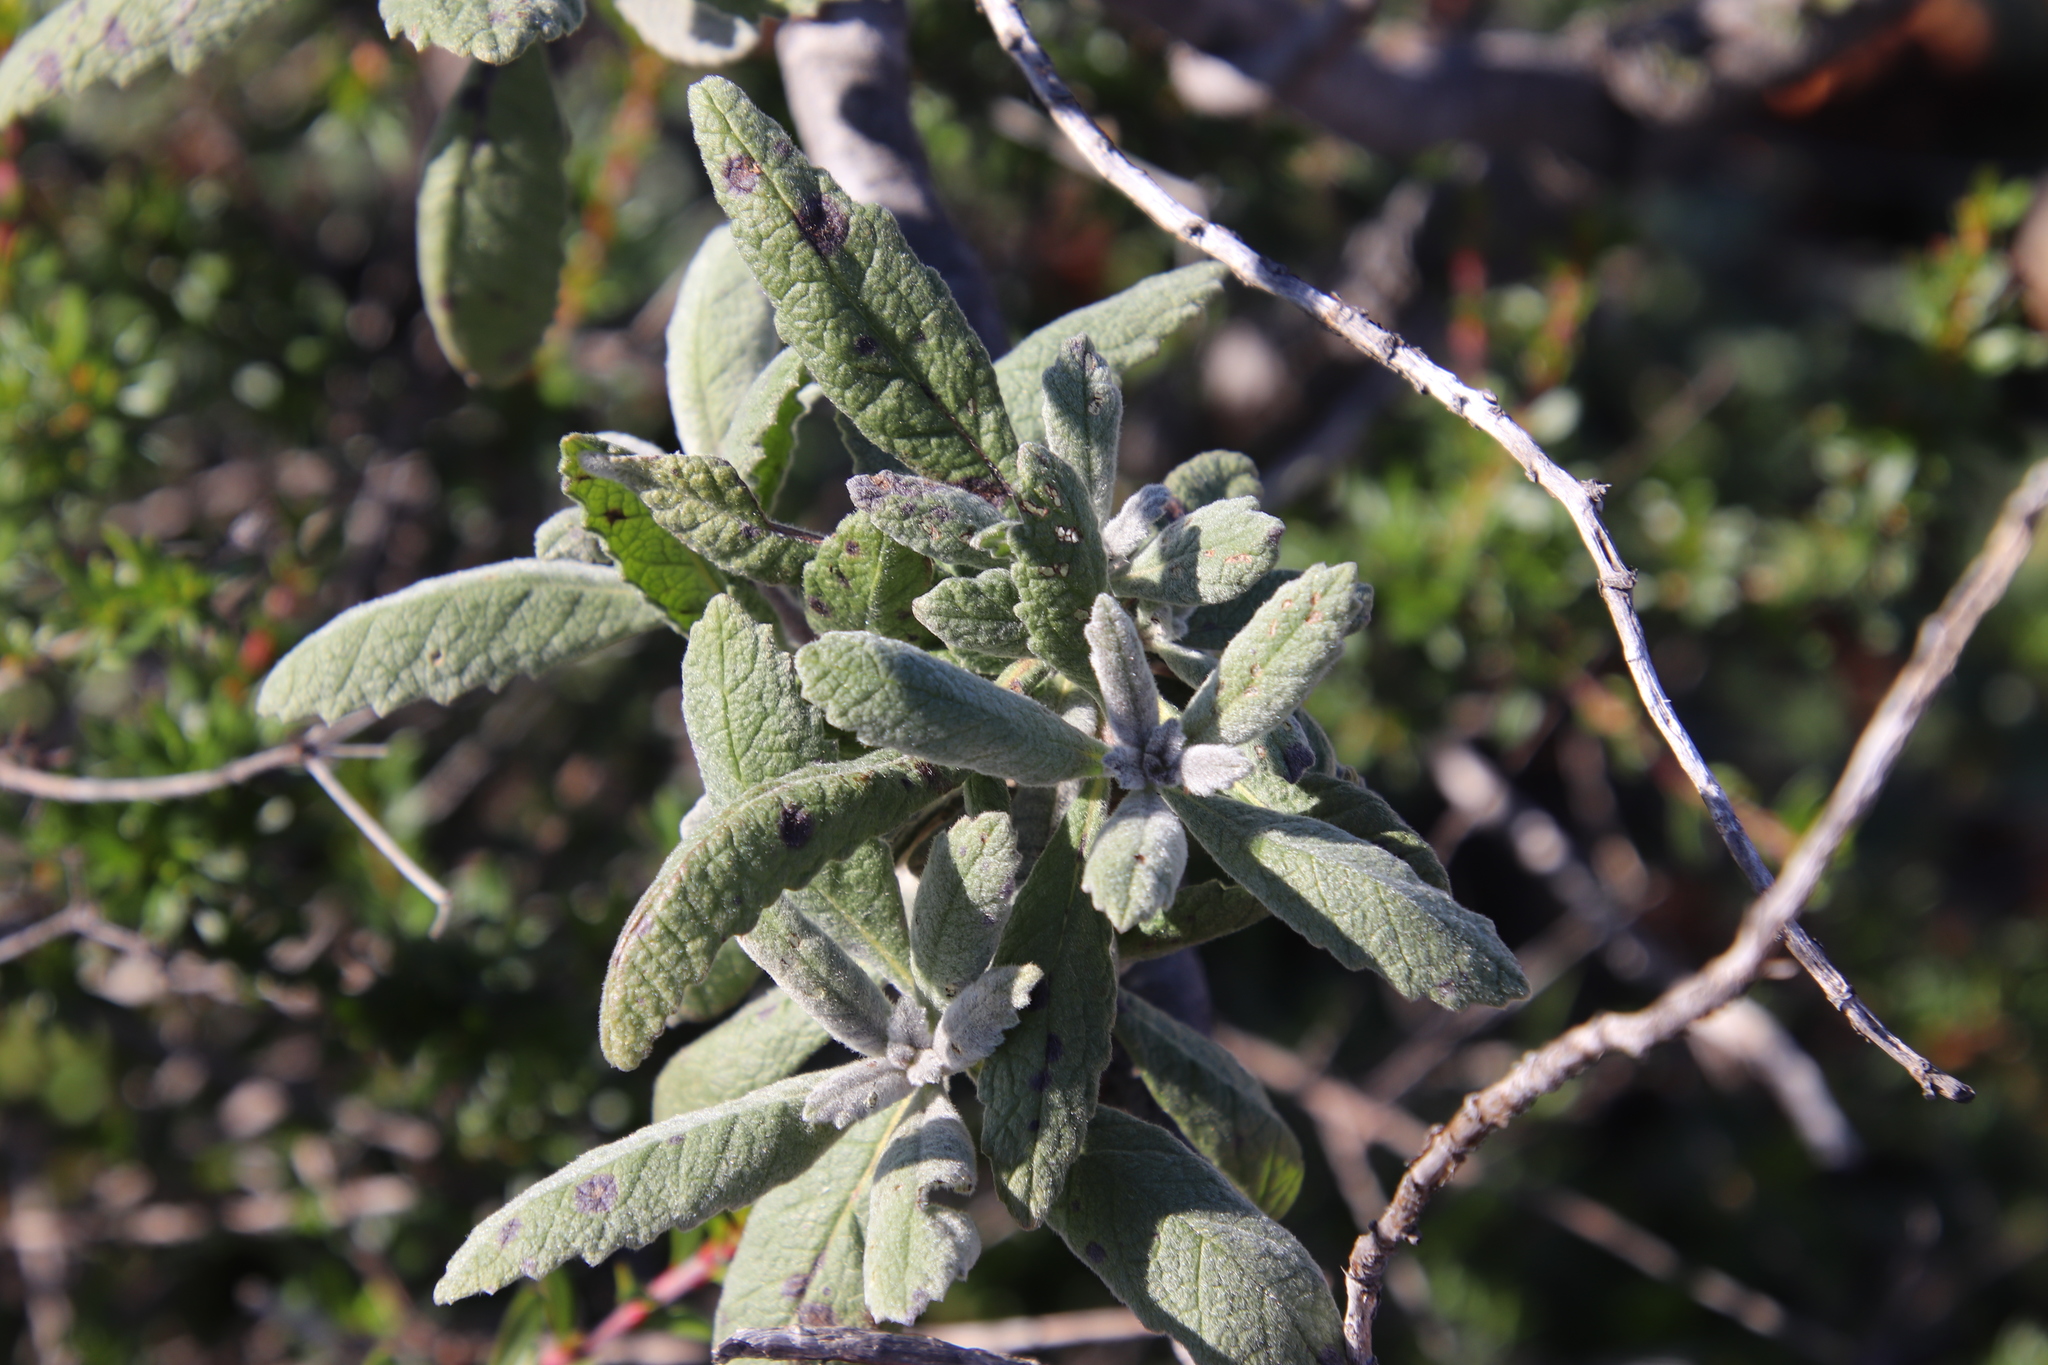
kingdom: Plantae
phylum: Tracheophyta
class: Magnoliopsida
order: Boraginales
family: Namaceae
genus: Eriodictyon
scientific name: Eriodictyon crassifolium
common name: Thick-leaf yerba-santa
